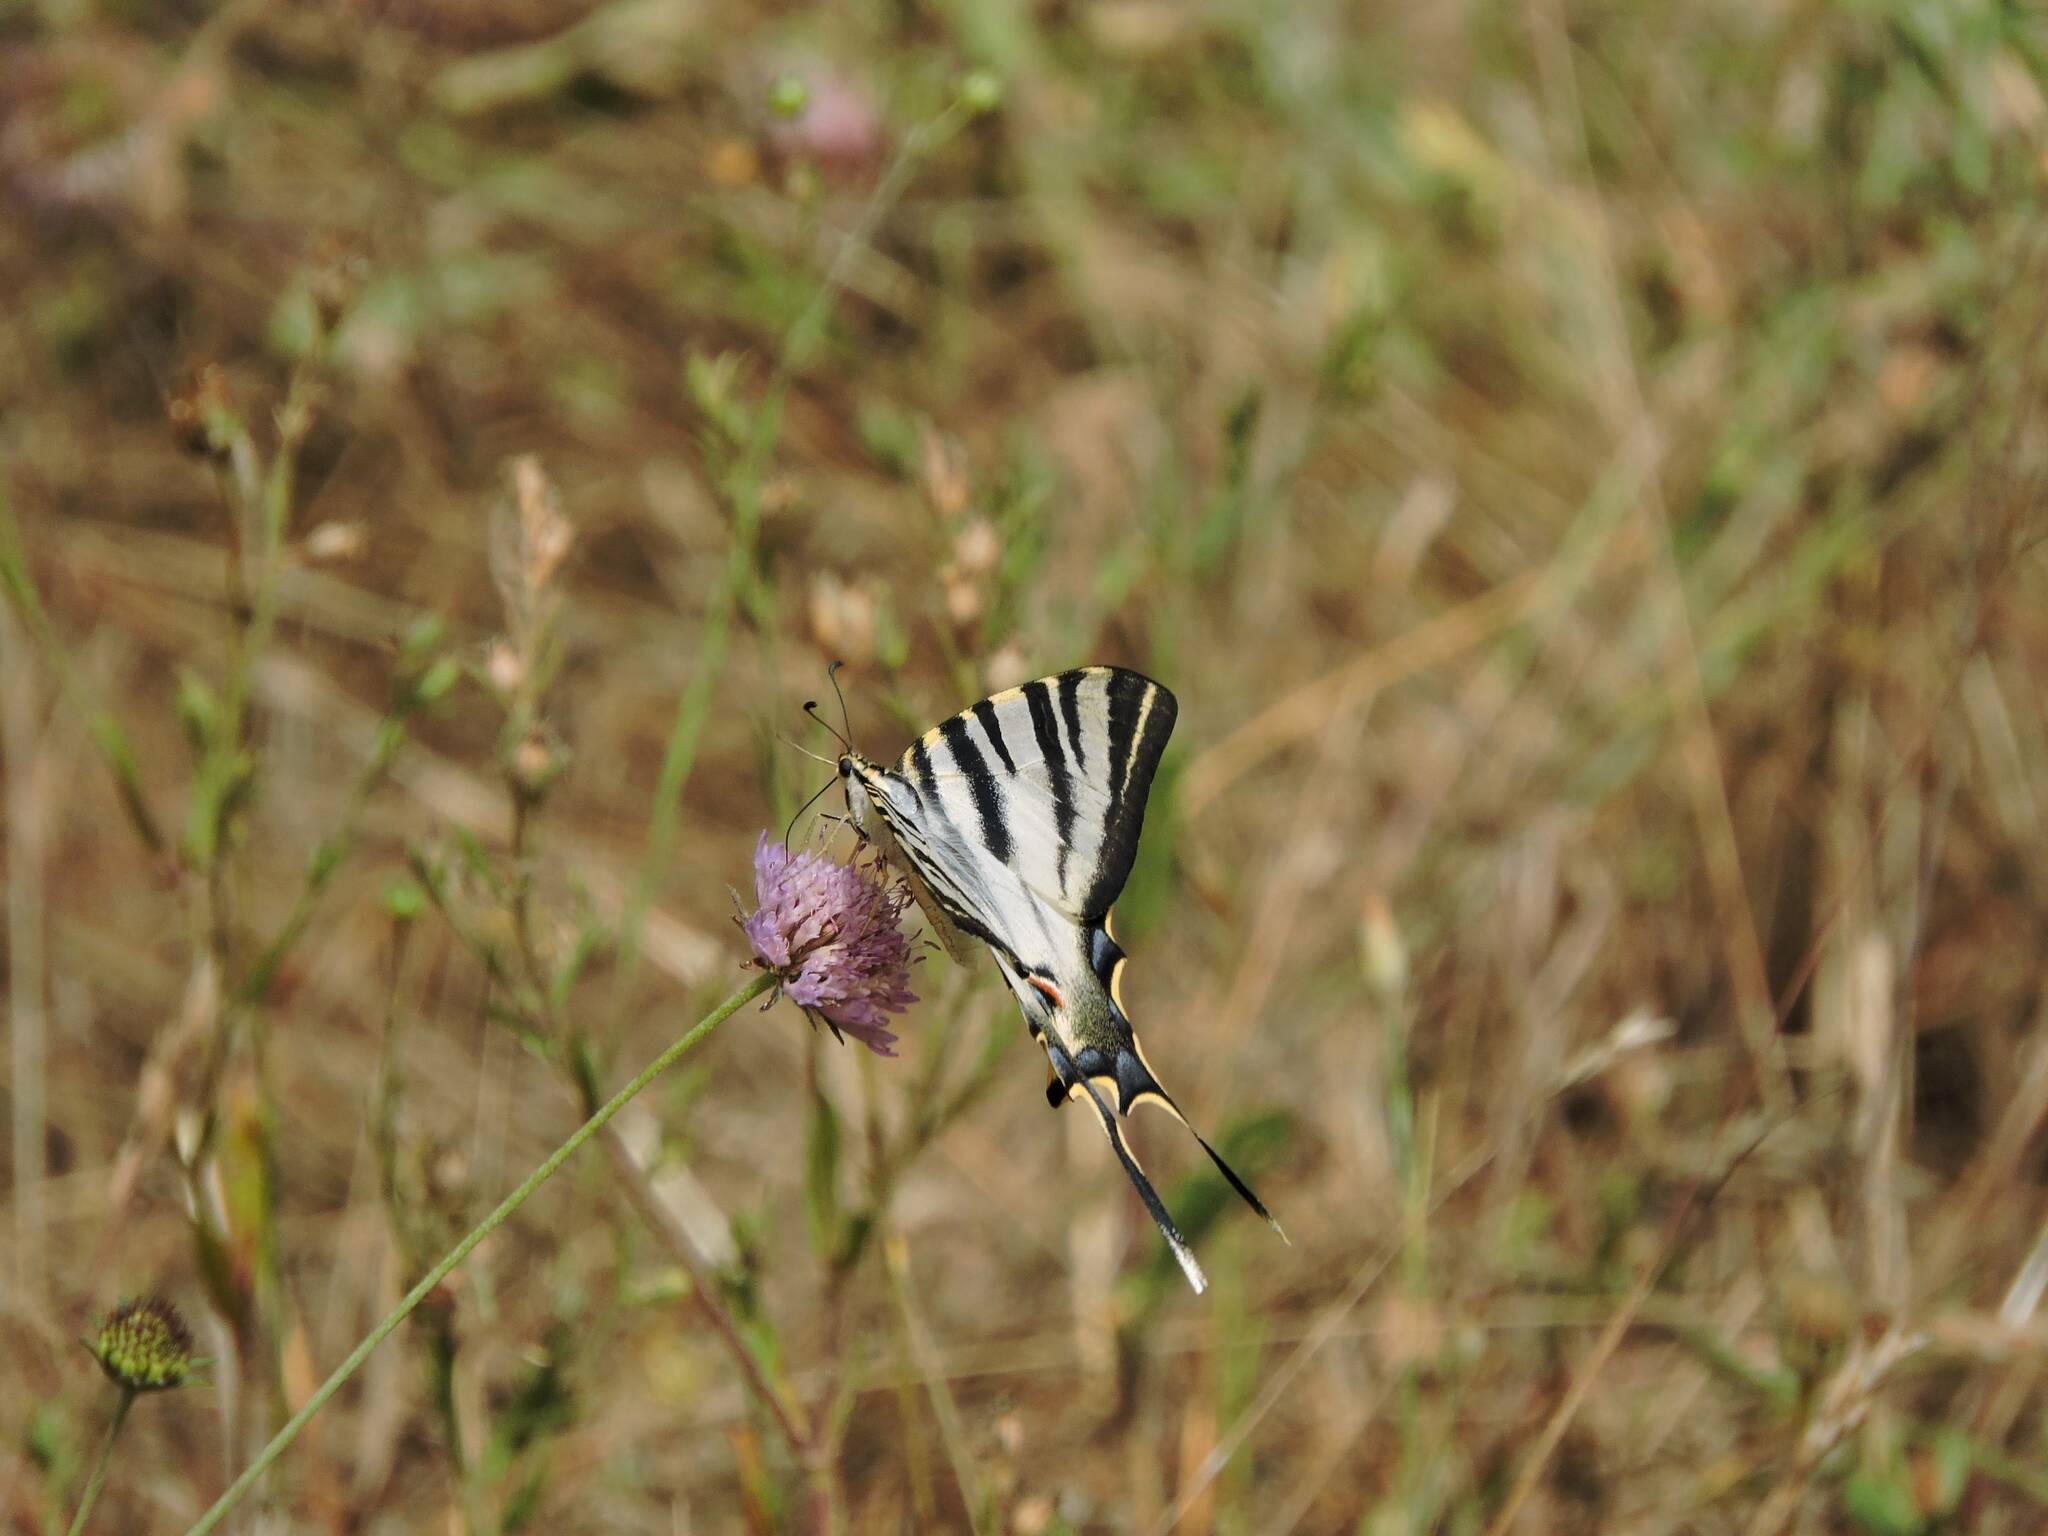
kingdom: Animalia
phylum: Arthropoda
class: Insecta
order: Lepidoptera
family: Papilionidae
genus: Iphiclides
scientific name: Iphiclides feisthamelii
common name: Iberian scarce swallowtail
